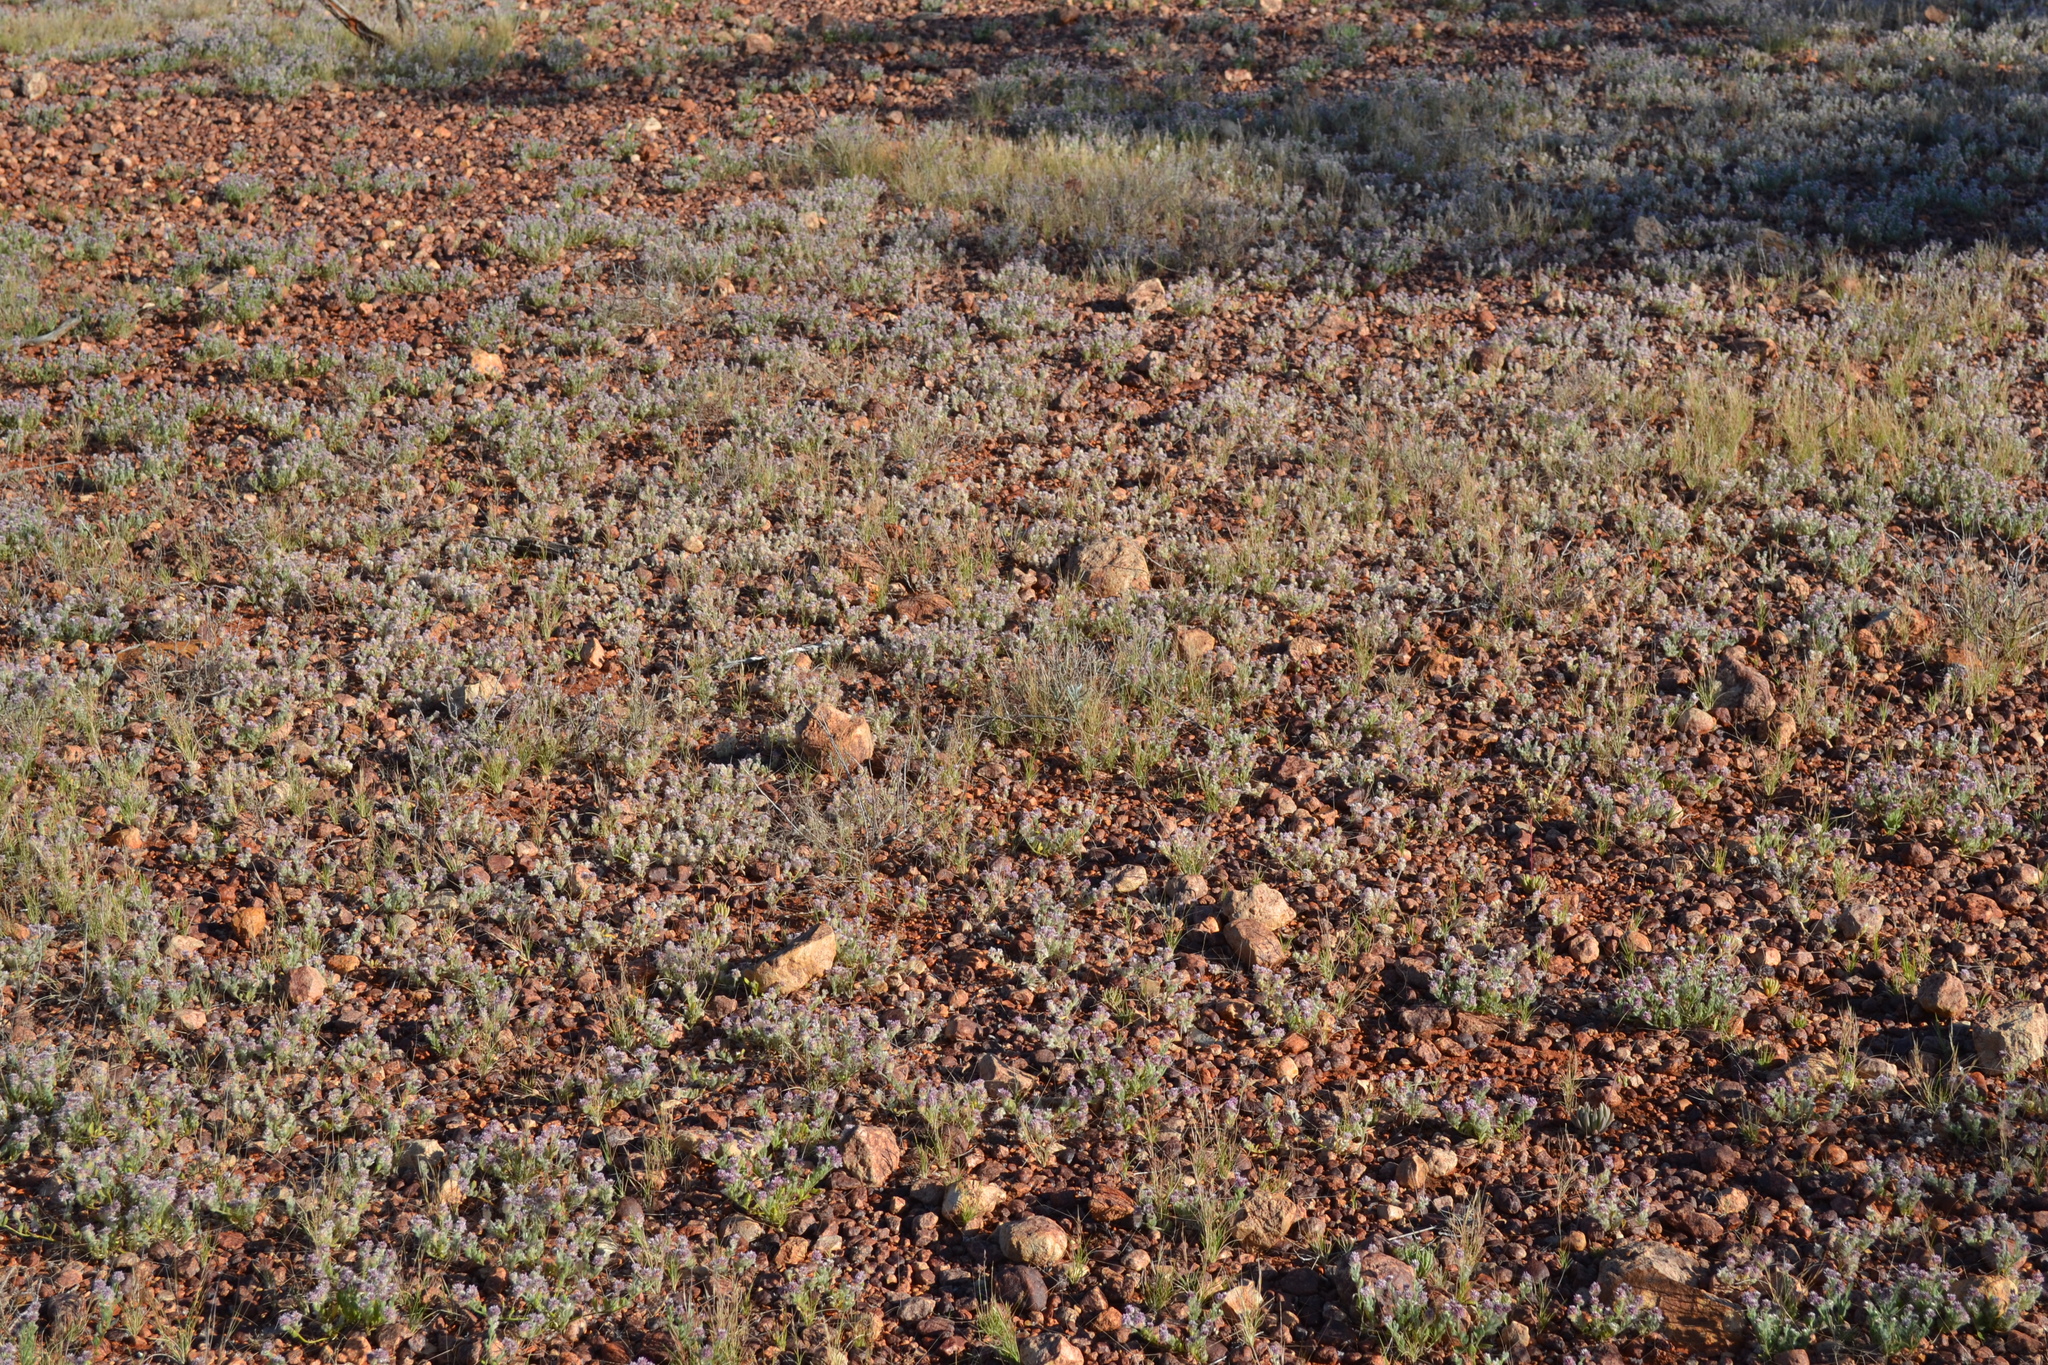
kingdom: Plantae
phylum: Tracheophyta
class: Magnoliopsida
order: Caryophyllales
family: Amaranthaceae
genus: Ptilotus
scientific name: Ptilotus pseudohelipteroides
